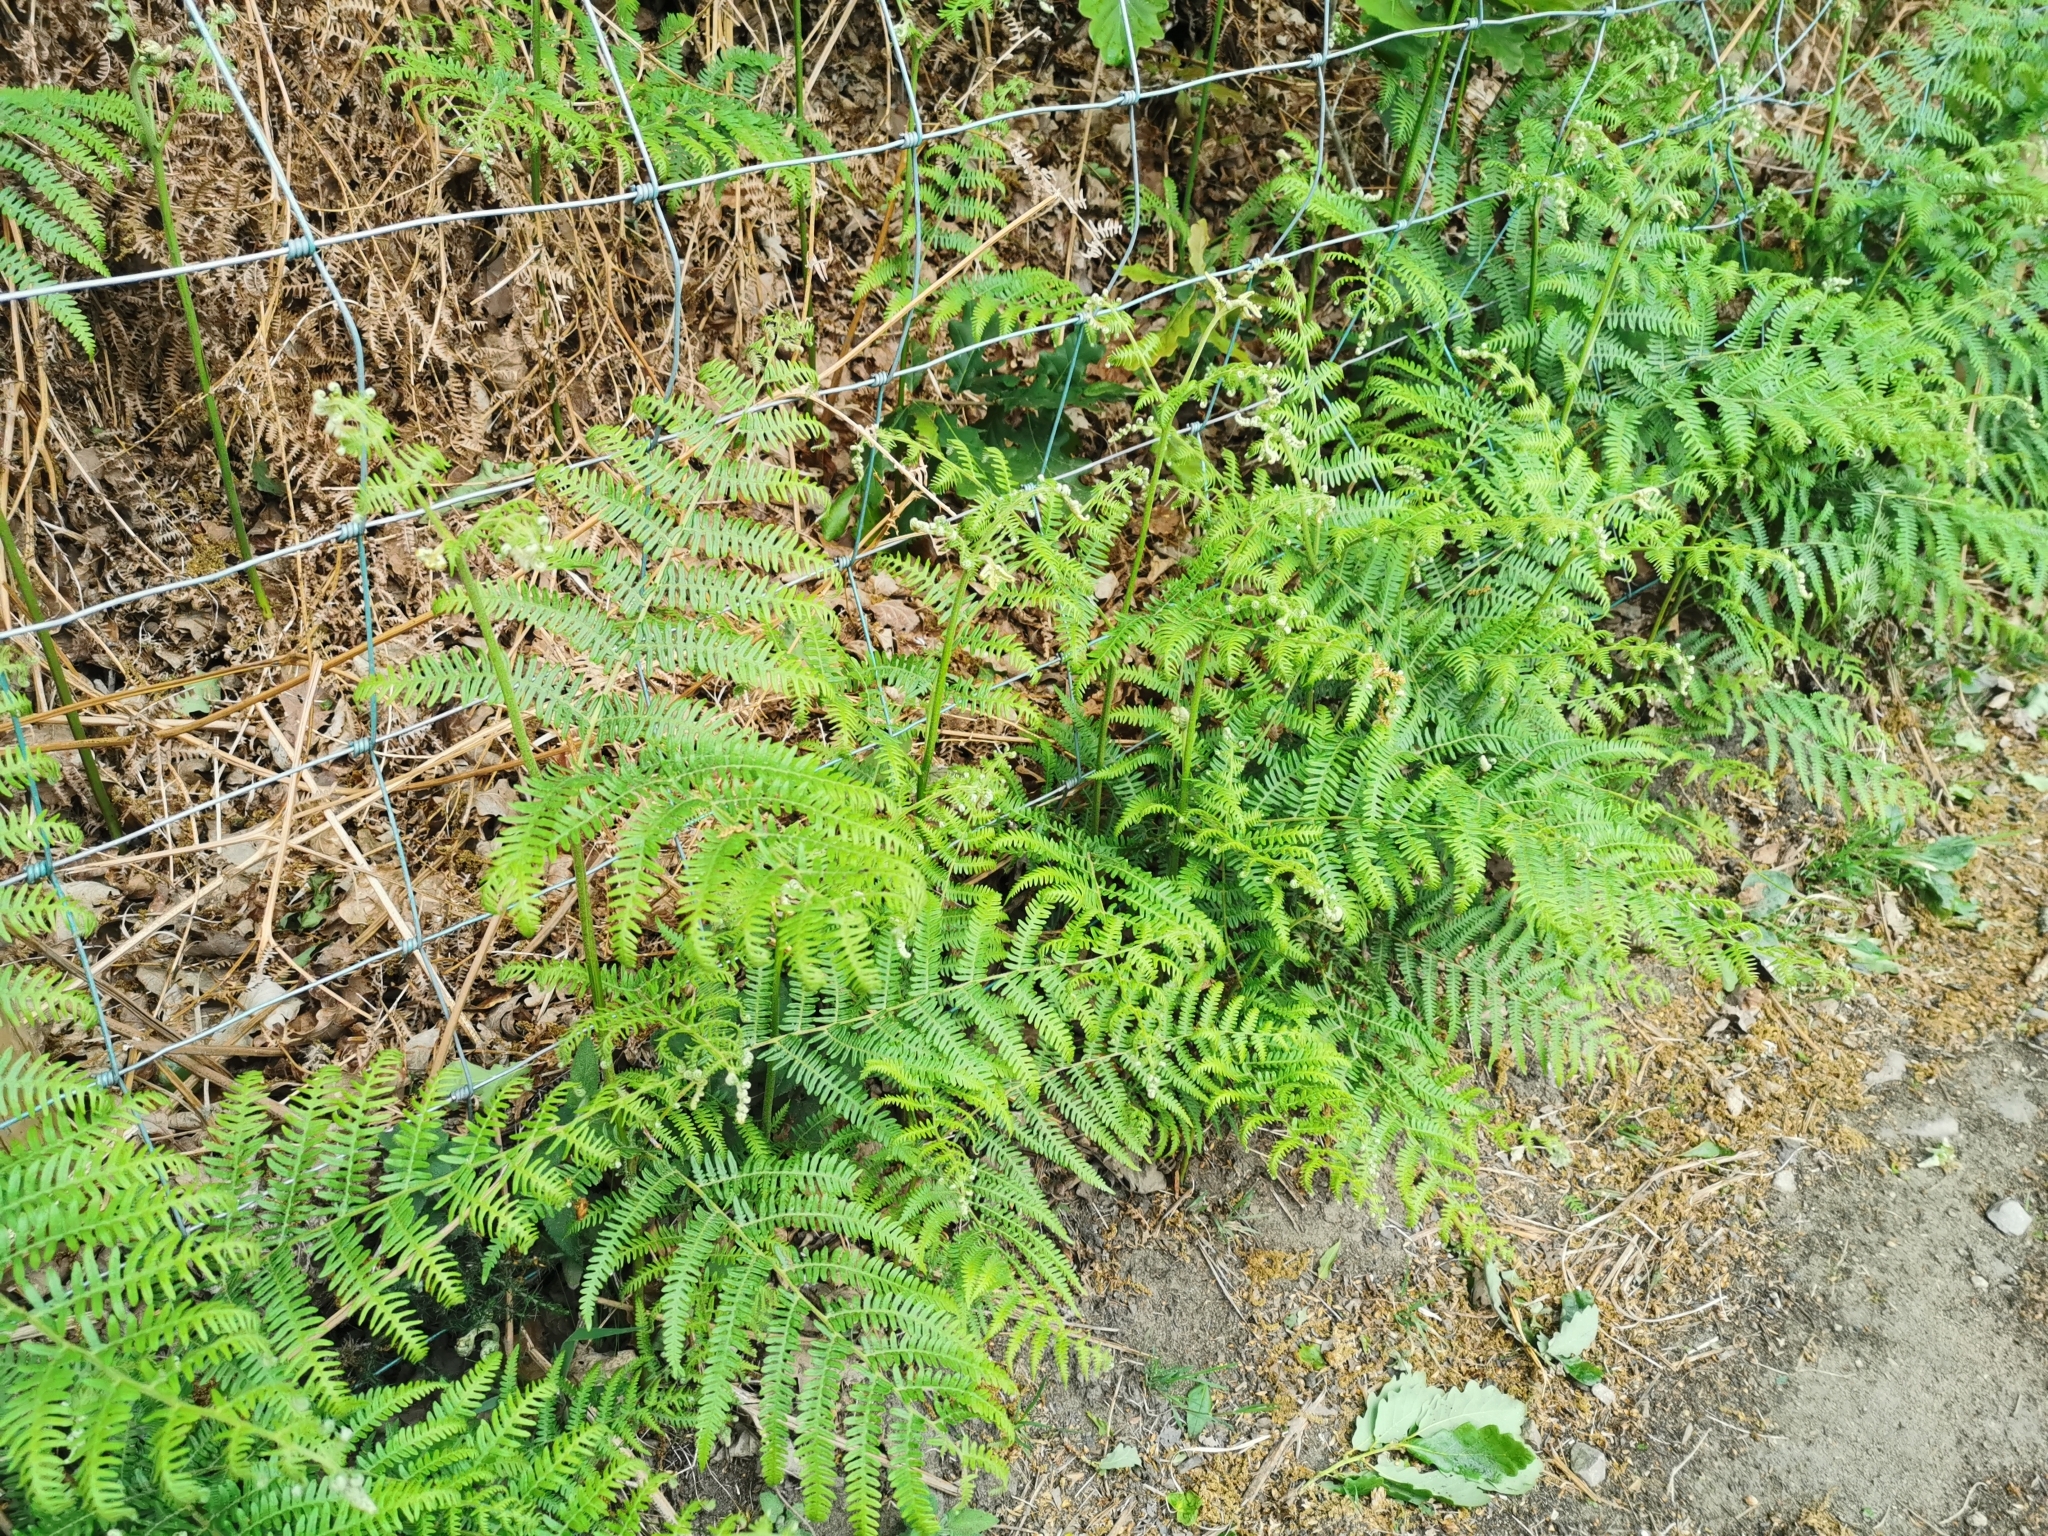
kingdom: Plantae
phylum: Tracheophyta
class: Polypodiopsida
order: Polypodiales
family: Dennstaedtiaceae
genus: Pteridium
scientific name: Pteridium aquilinum
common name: Bracken
